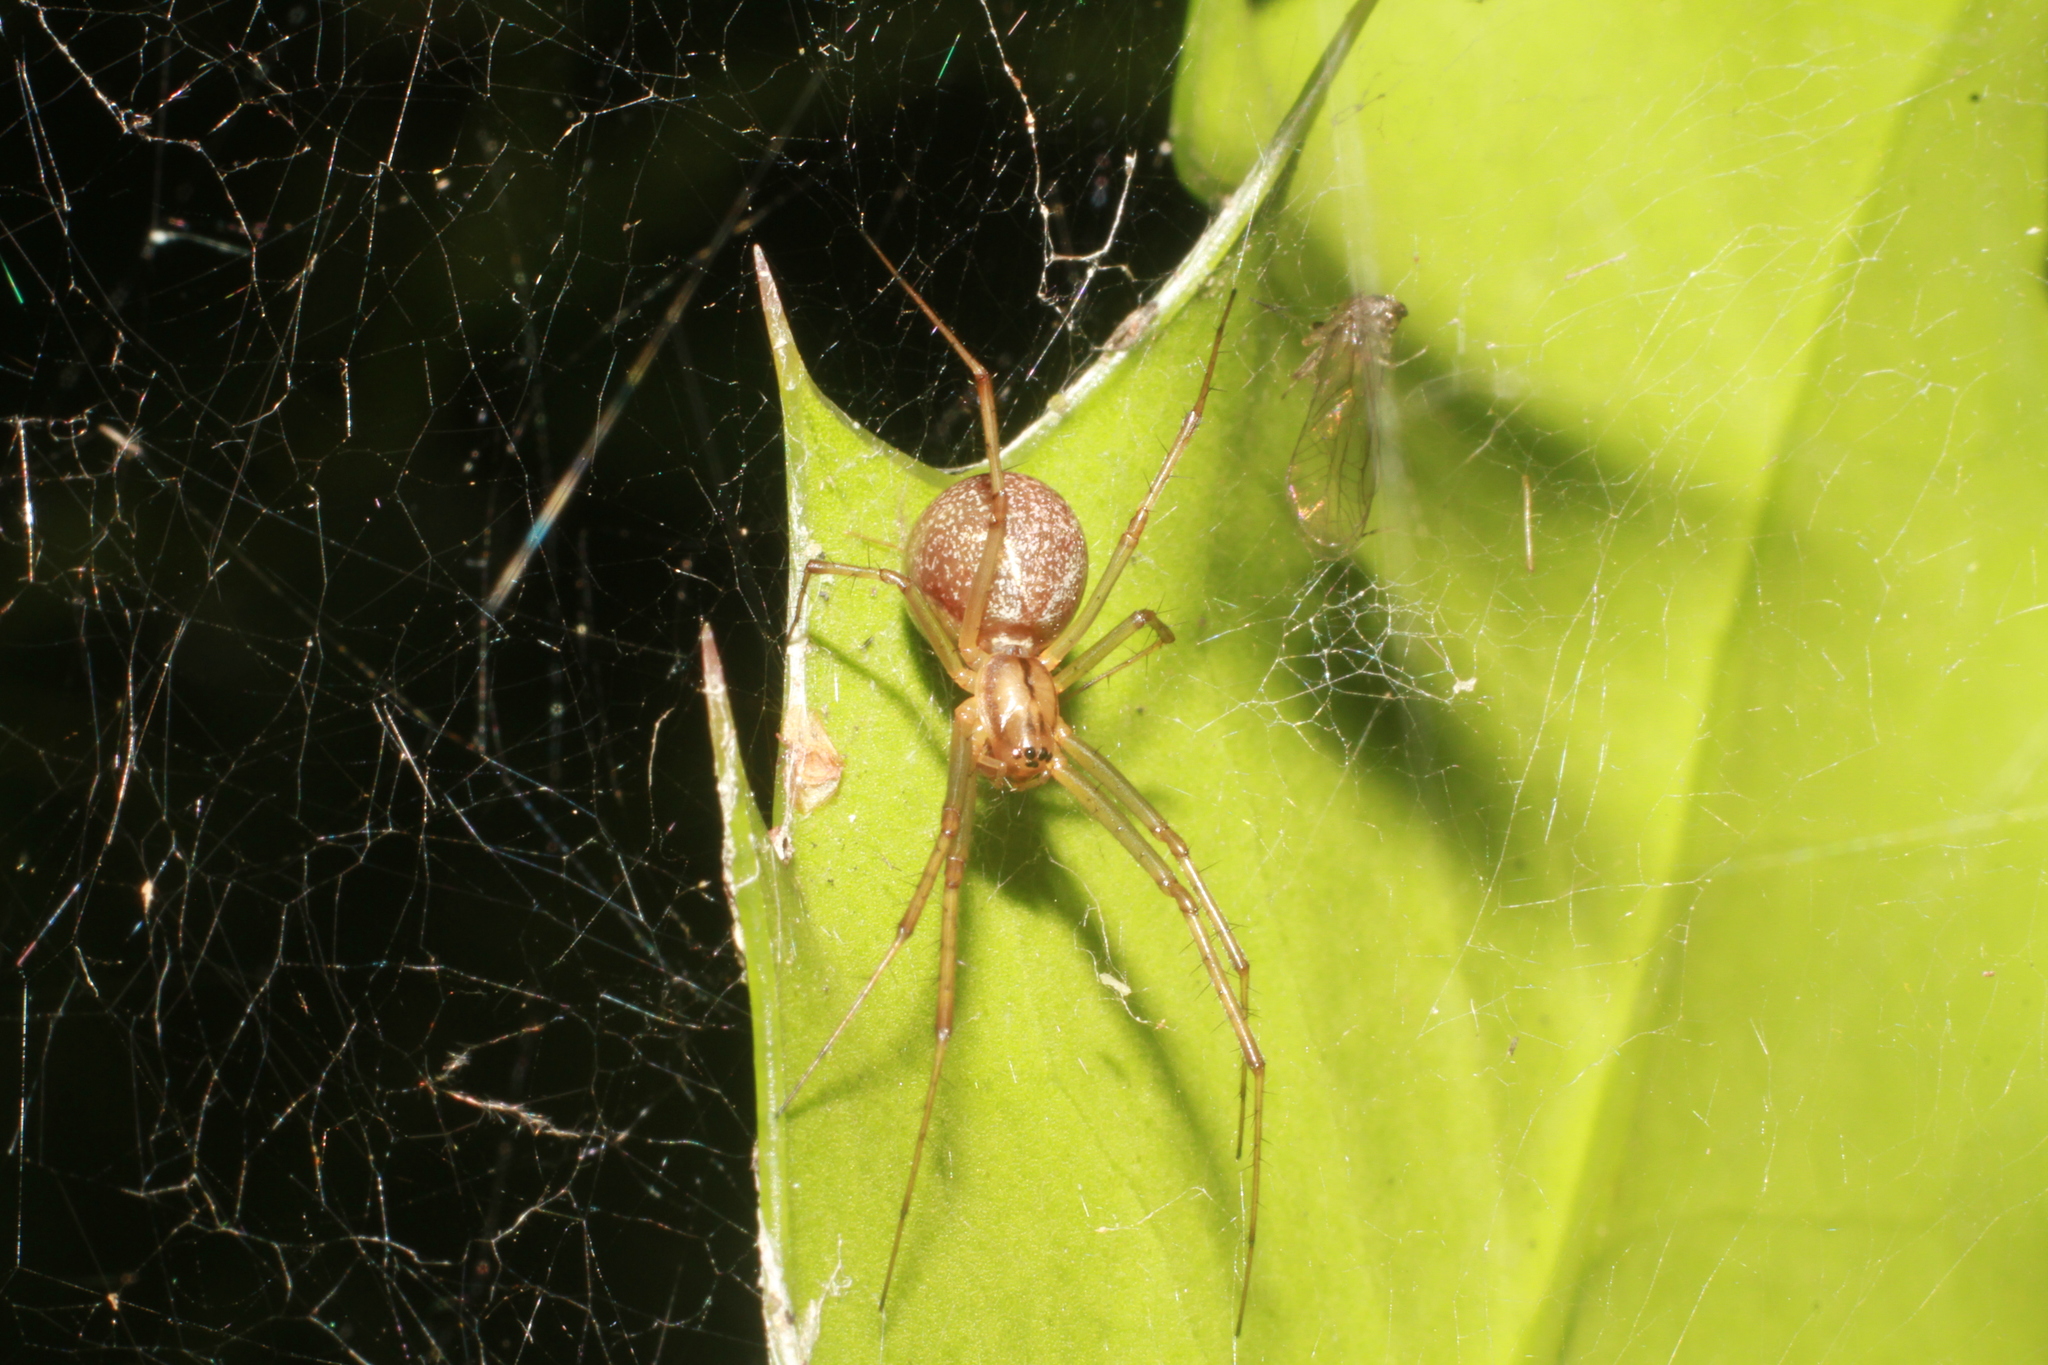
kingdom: Animalia
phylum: Arthropoda
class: Arachnida
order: Araneae
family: Linyphiidae
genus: Linyphia
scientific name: Linyphia triangularis
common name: Money spider
